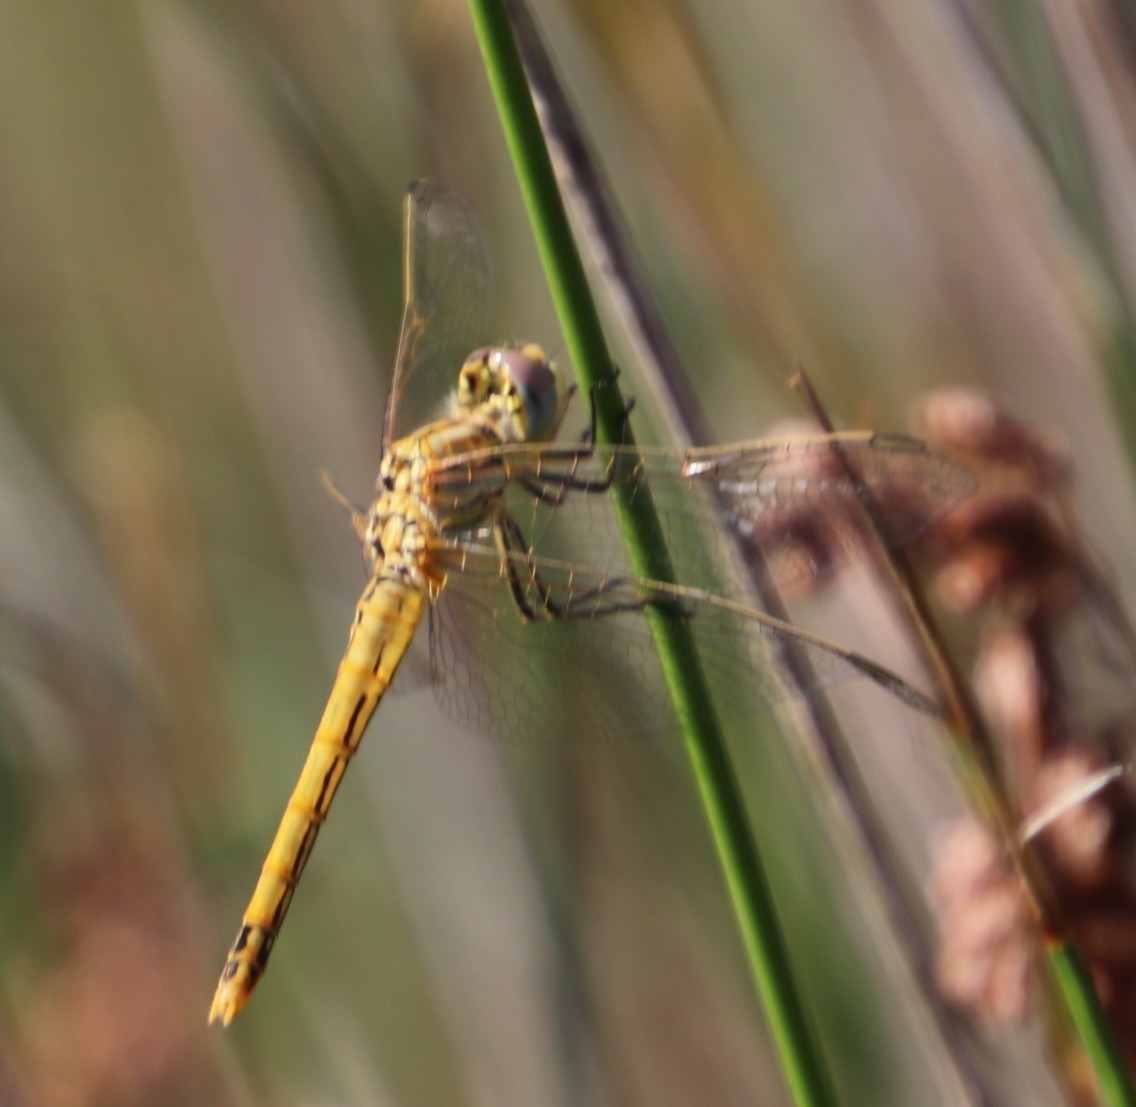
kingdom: Animalia
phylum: Arthropoda
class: Insecta
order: Odonata
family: Libellulidae
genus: Sympetrum
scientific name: Sympetrum fonscolombii
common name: Red-veined darter
